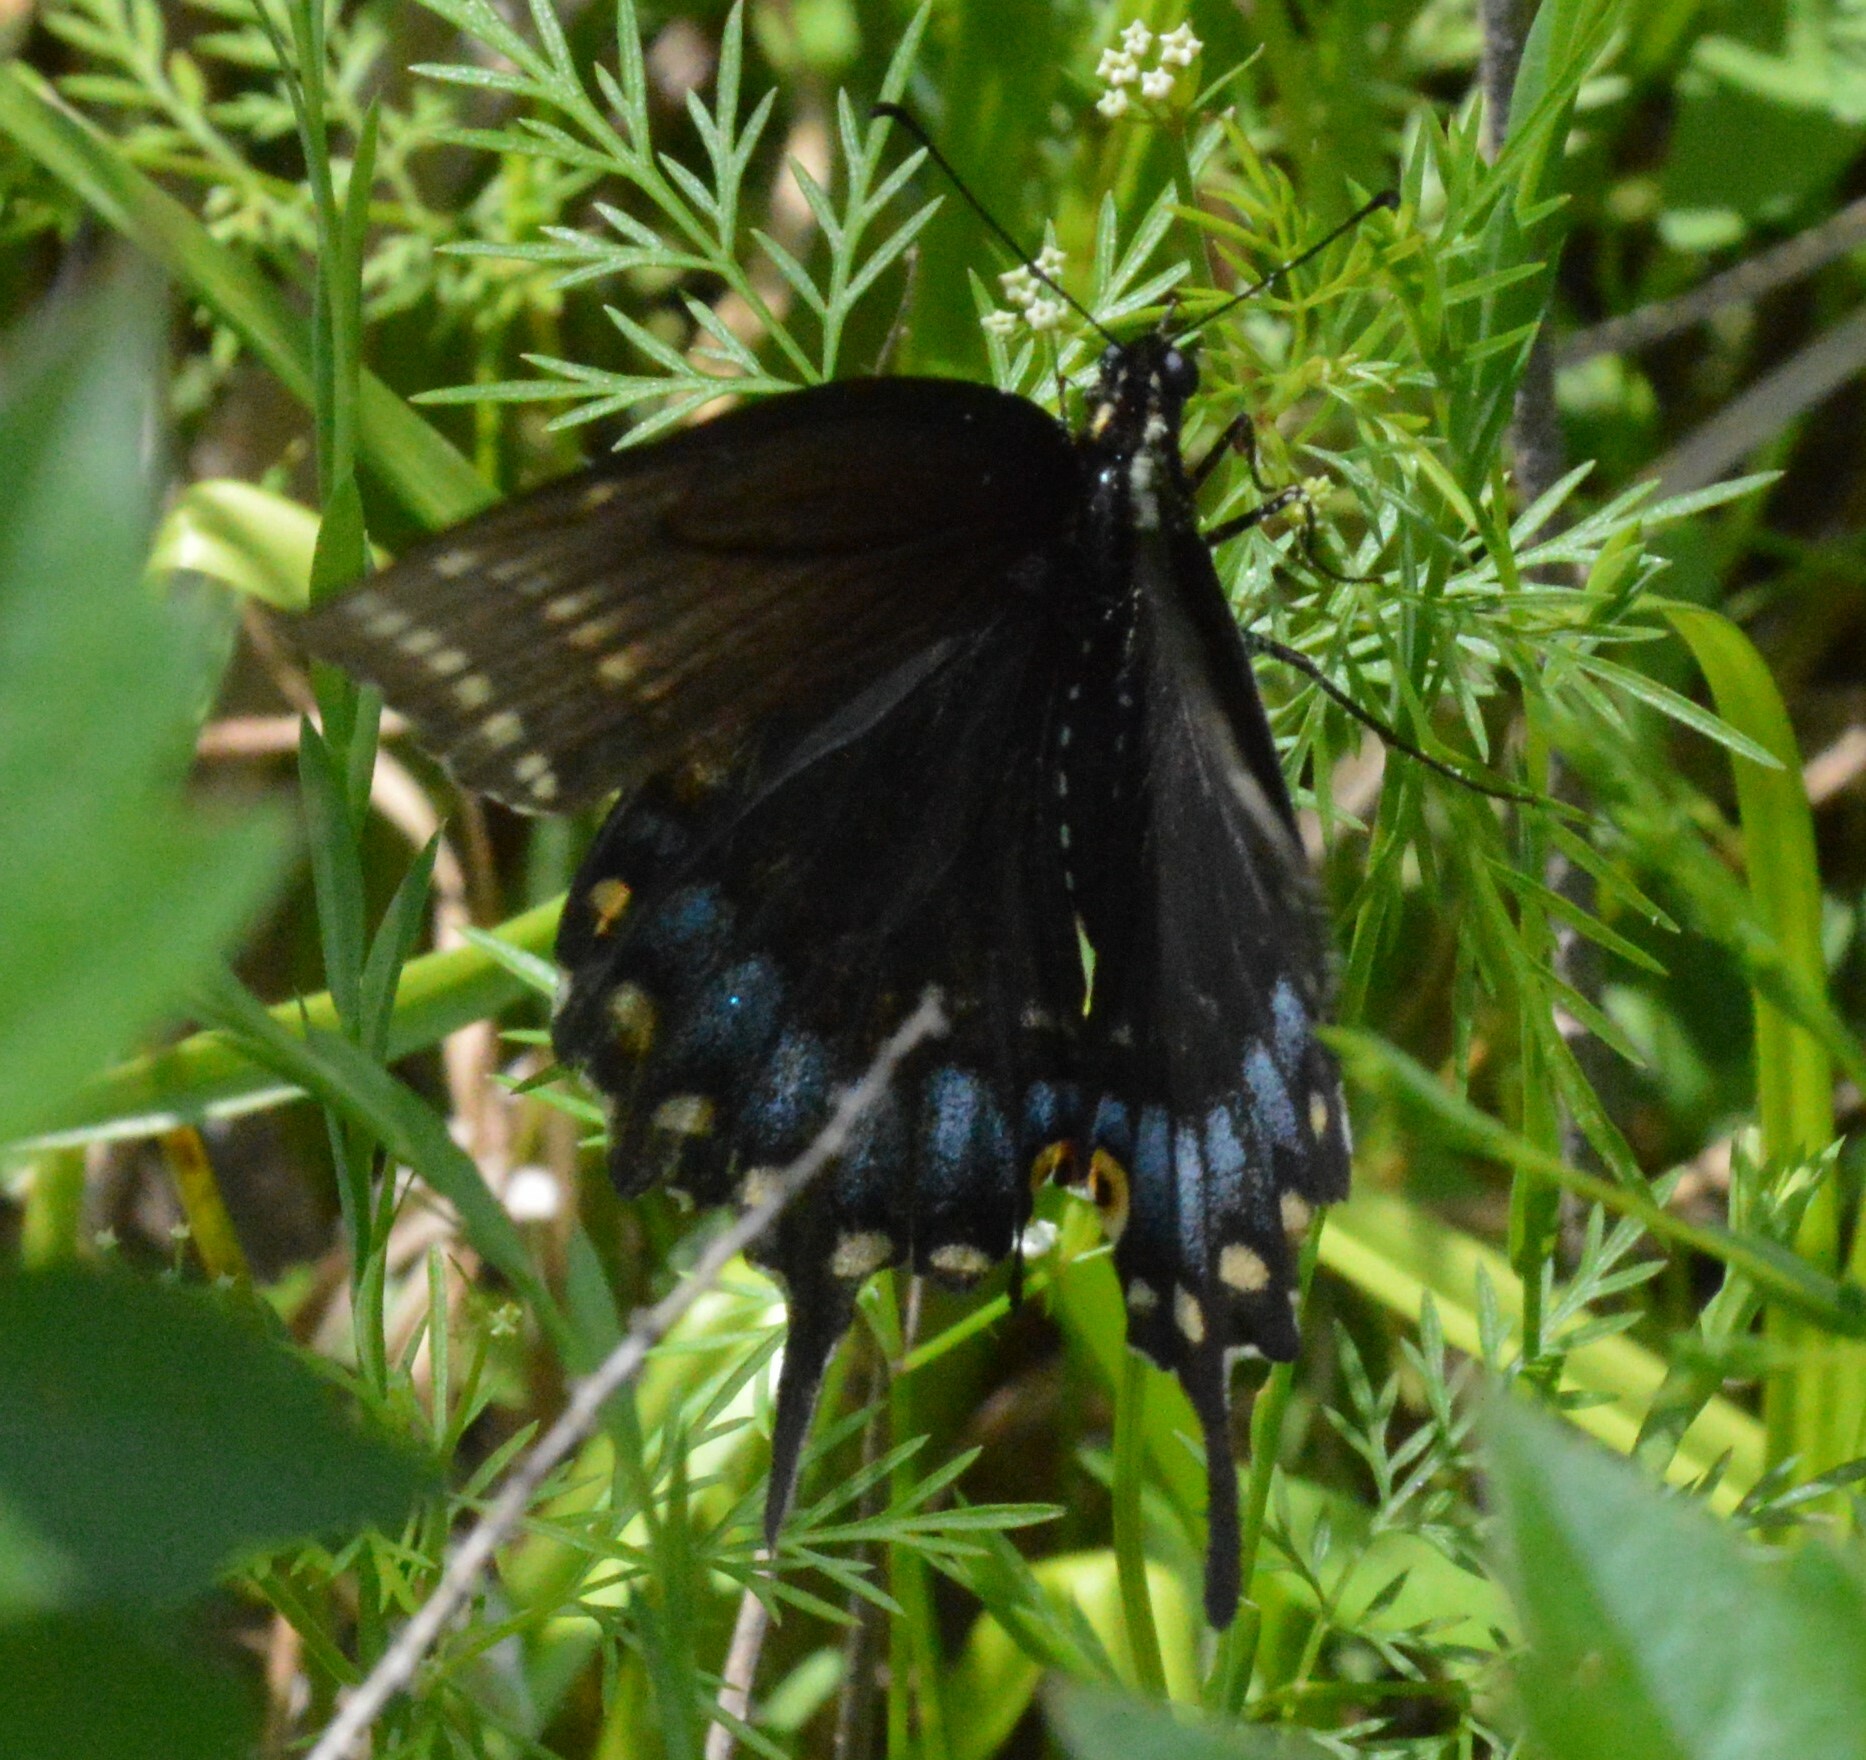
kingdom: Animalia
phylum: Arthropoda
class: Insecta
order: Lepidoptera
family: Papilionidae
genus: Papilio
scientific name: Papilio polyxenes
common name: Black swallowtail
